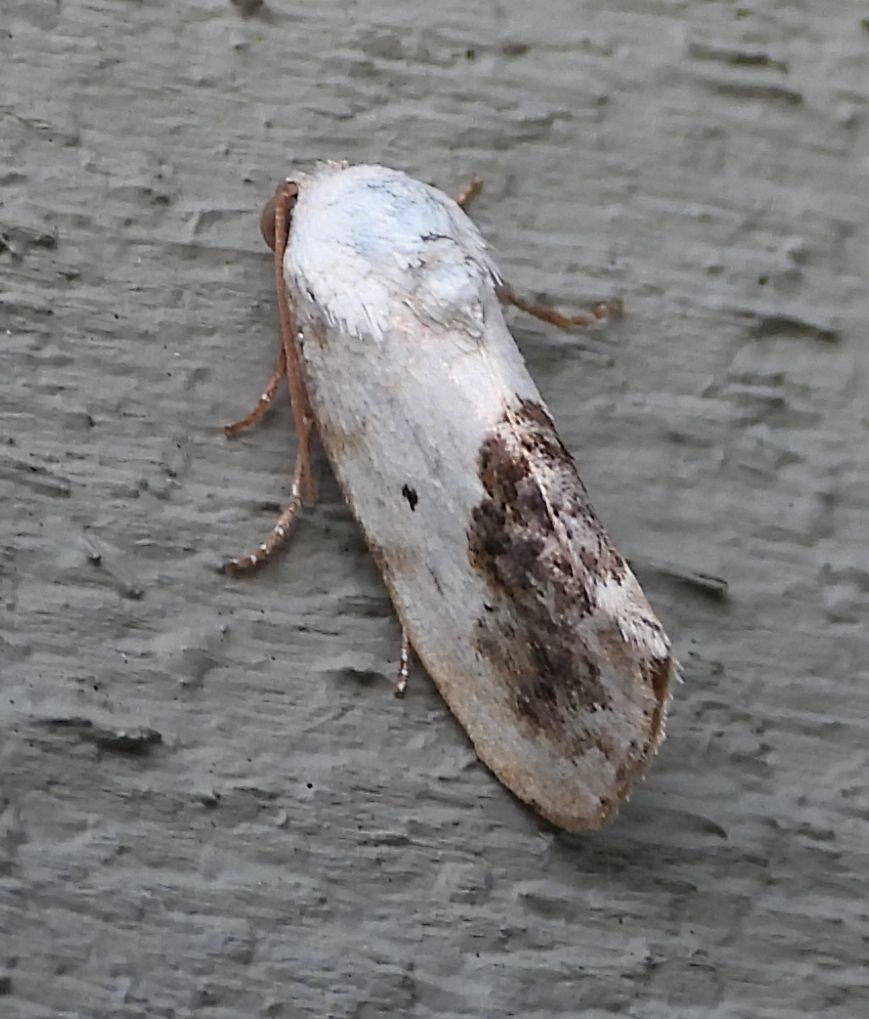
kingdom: Animalia
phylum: Arthropoda
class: Insecta
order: Lepidoptera
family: Noctuidae
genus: Acontia
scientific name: Acontia erastrioides
